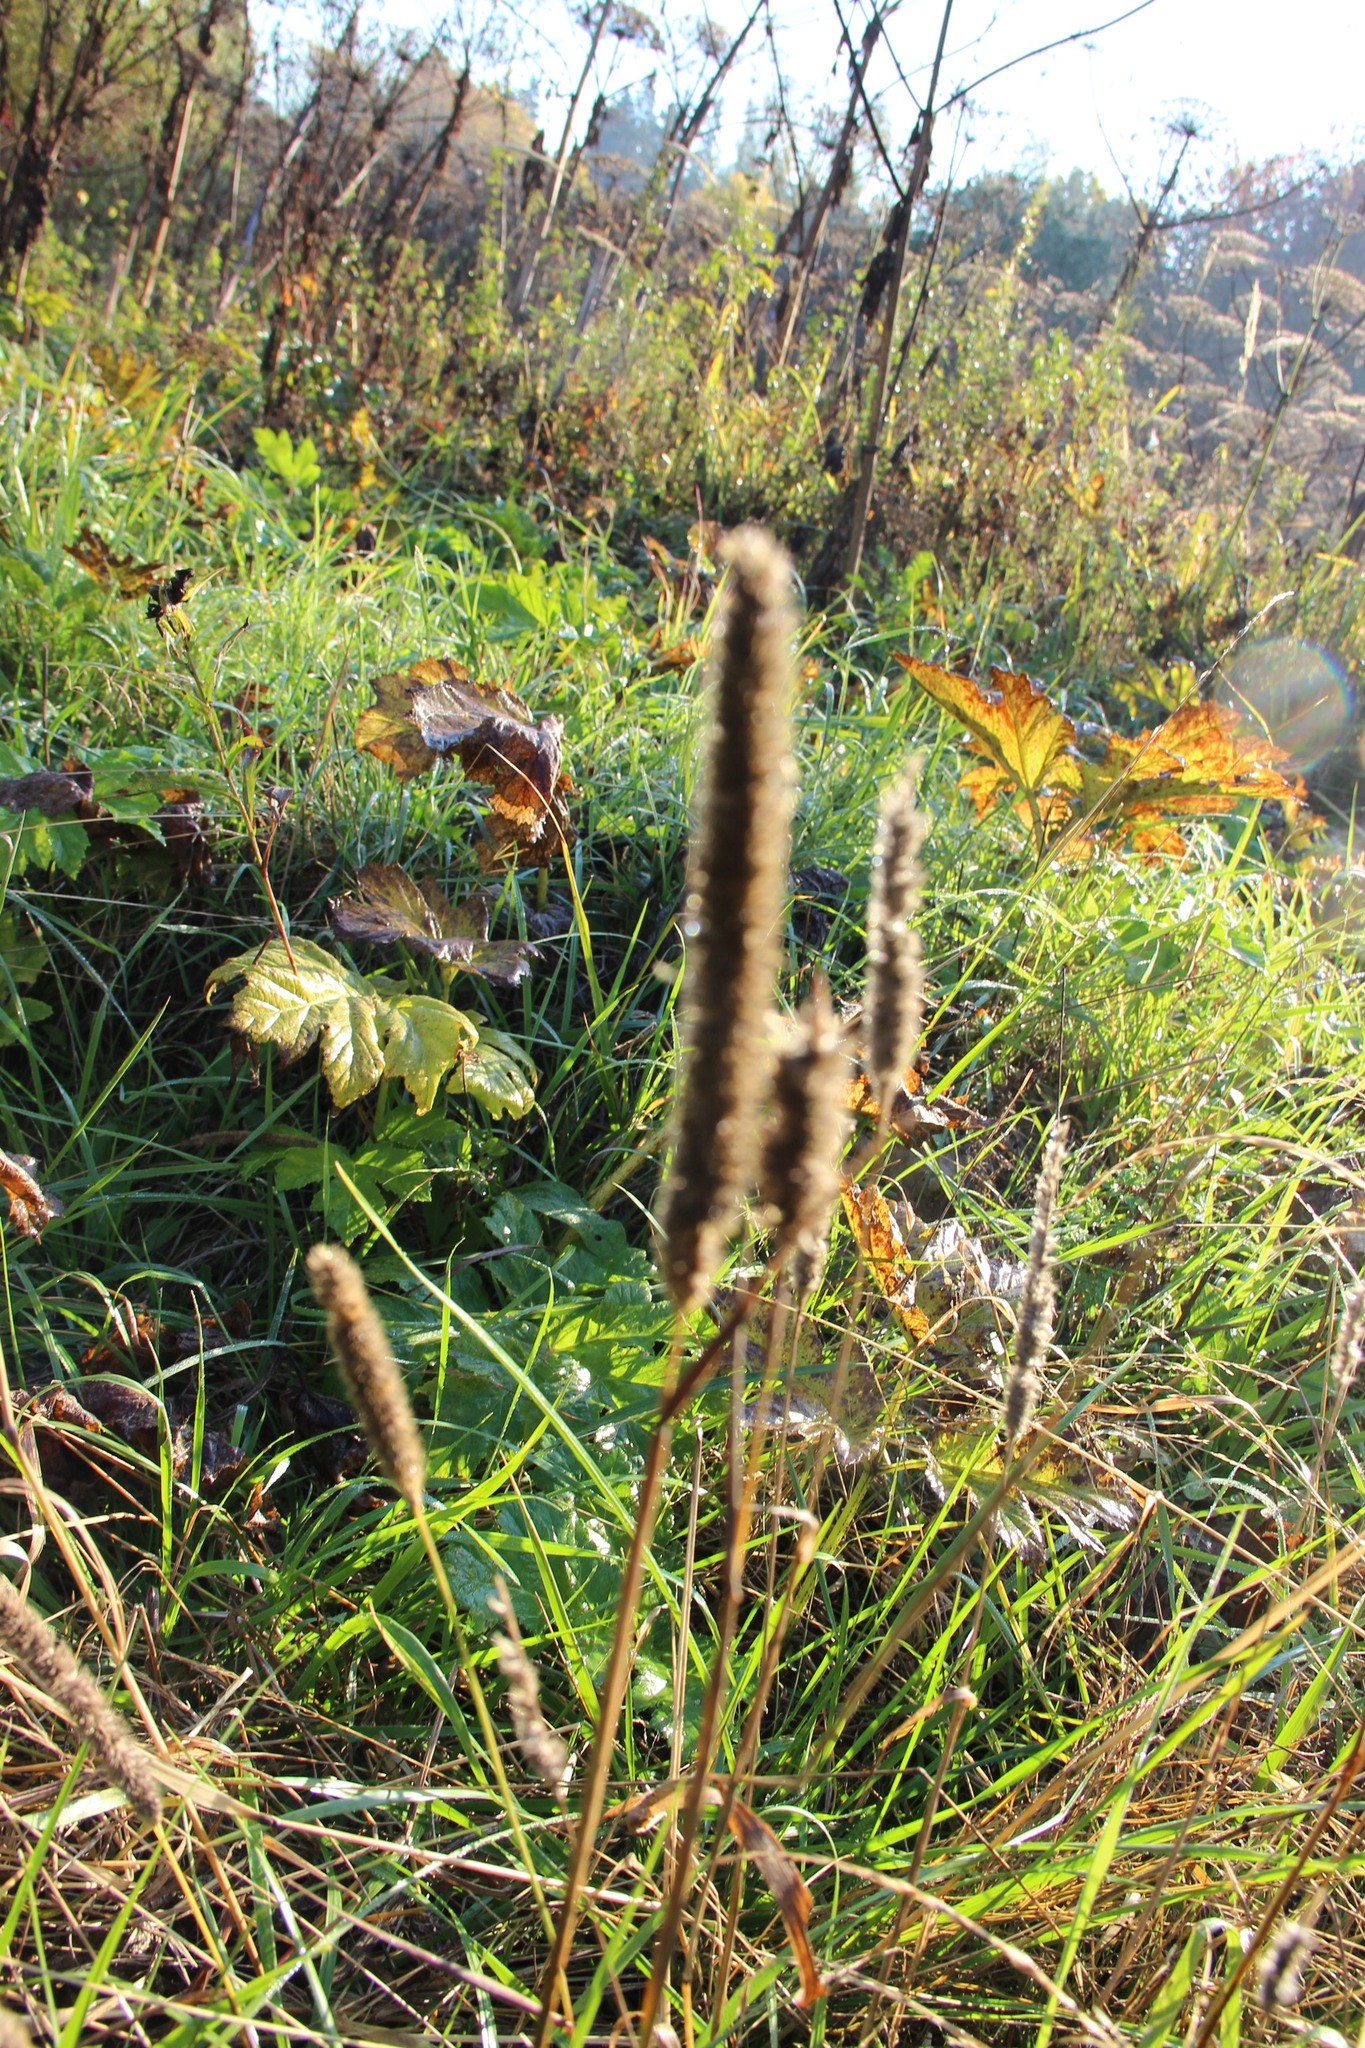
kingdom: Plantae
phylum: Tracheophyta
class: Liliopsida
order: Poales
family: Poaceae
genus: Phleum
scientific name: Phleum pratense
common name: Timothy grass
